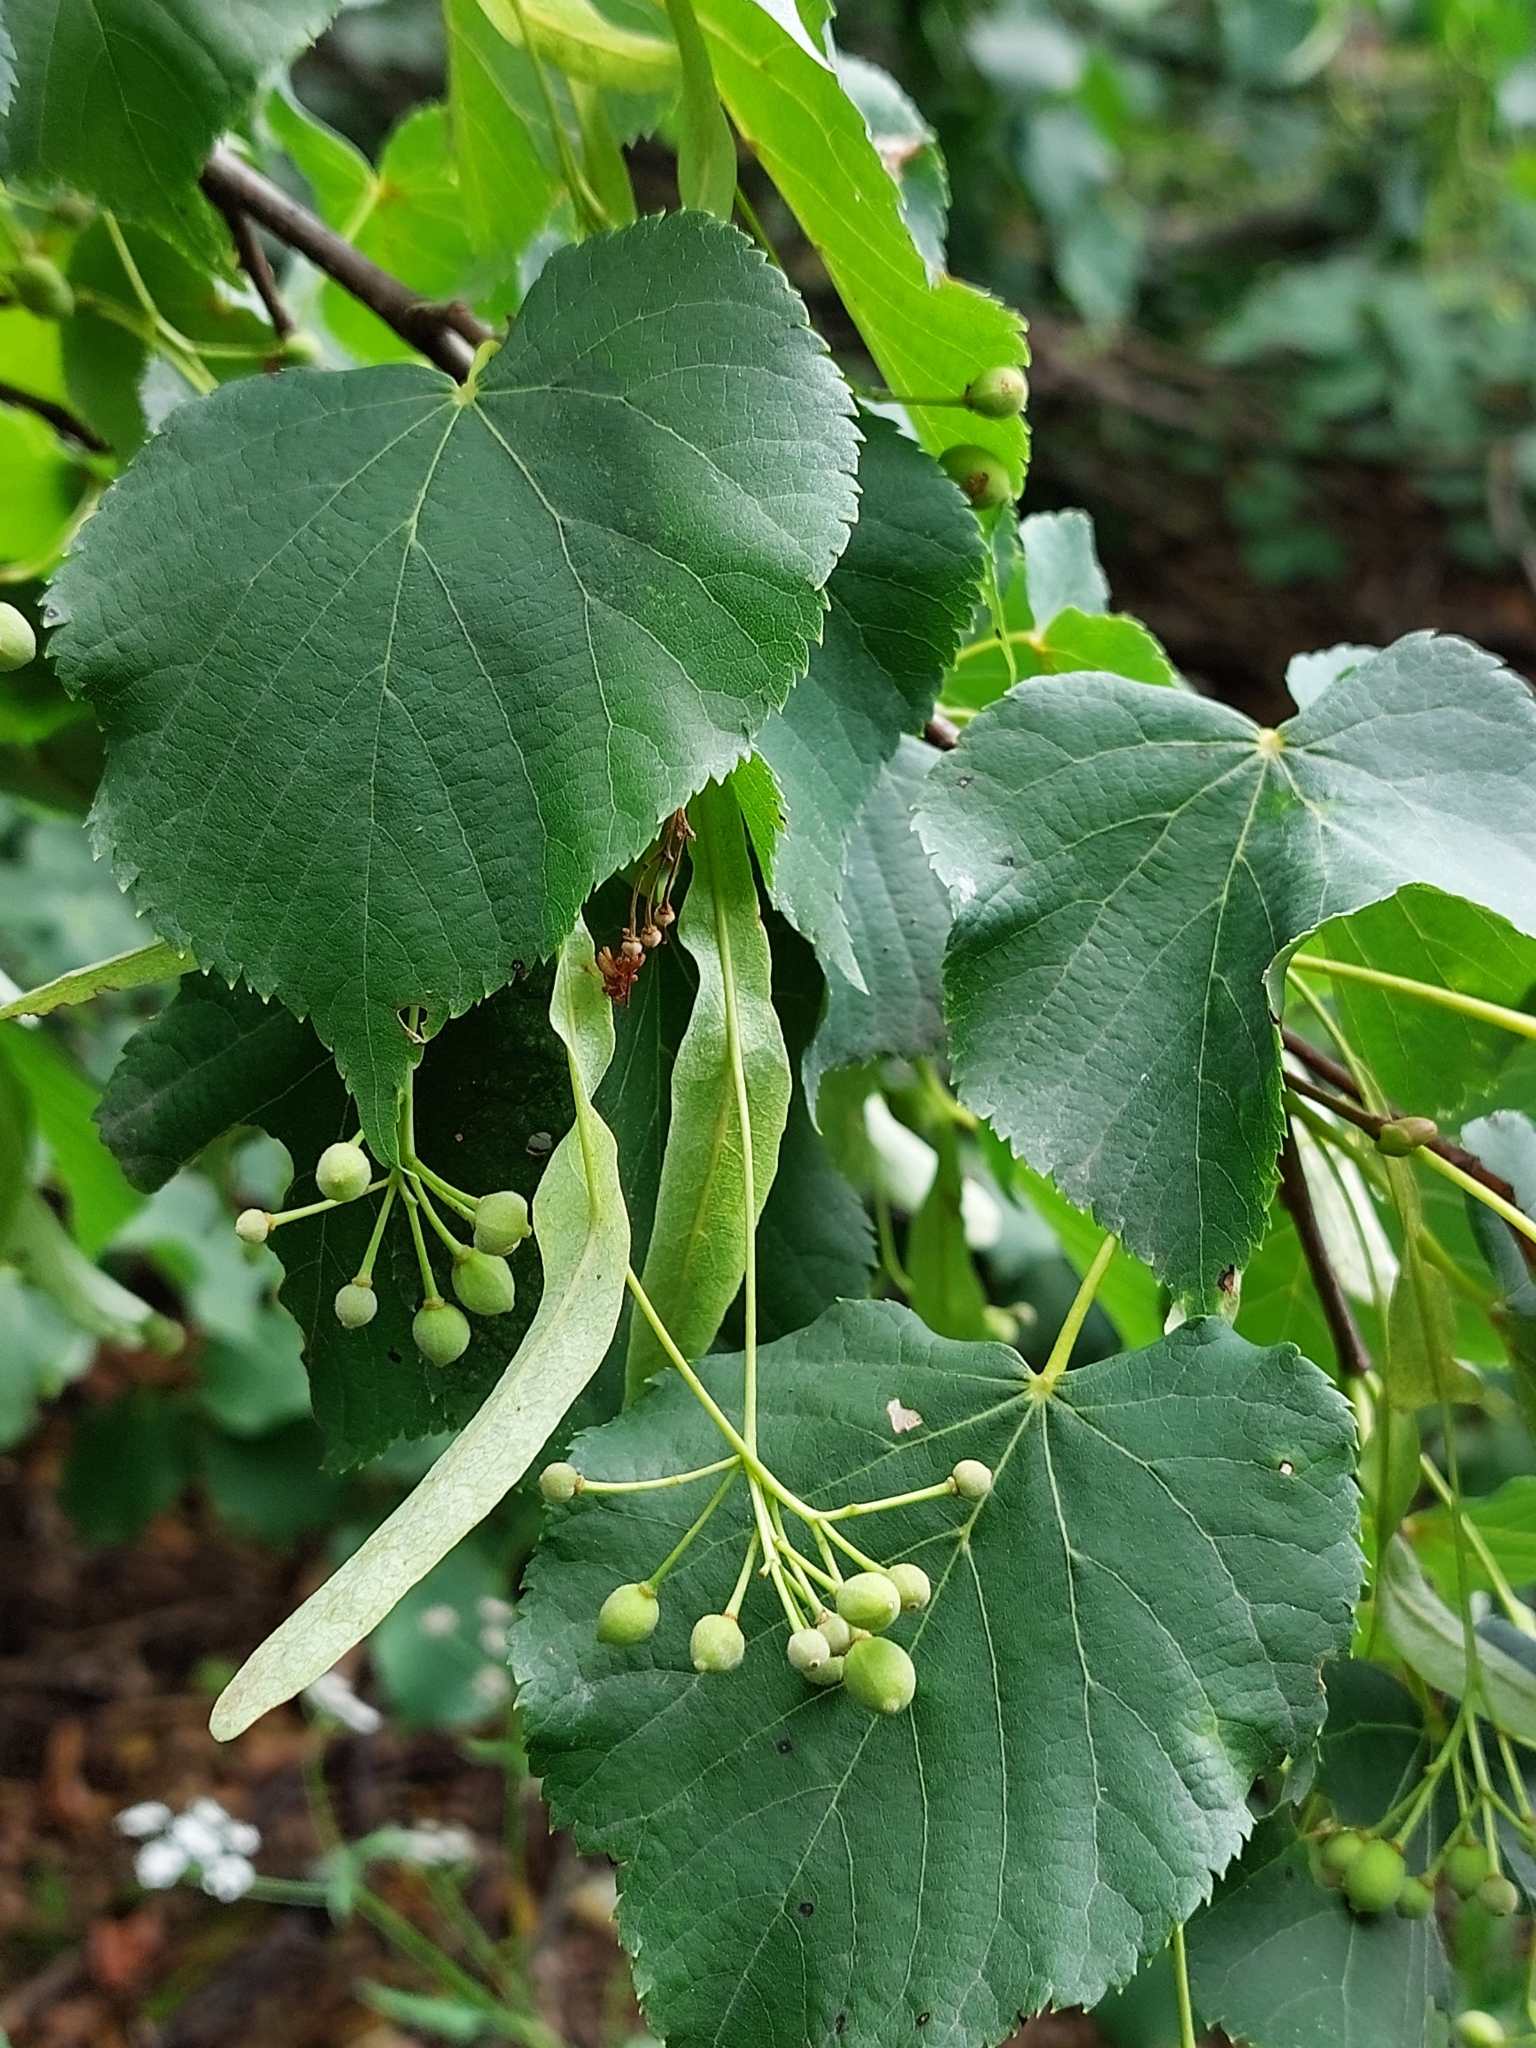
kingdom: Plantae
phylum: Tracheophyta
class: Magnoliopsida
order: Malvales
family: Malvaceae
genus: Tilia
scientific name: Tilia cordata
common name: Small-leaved lime
